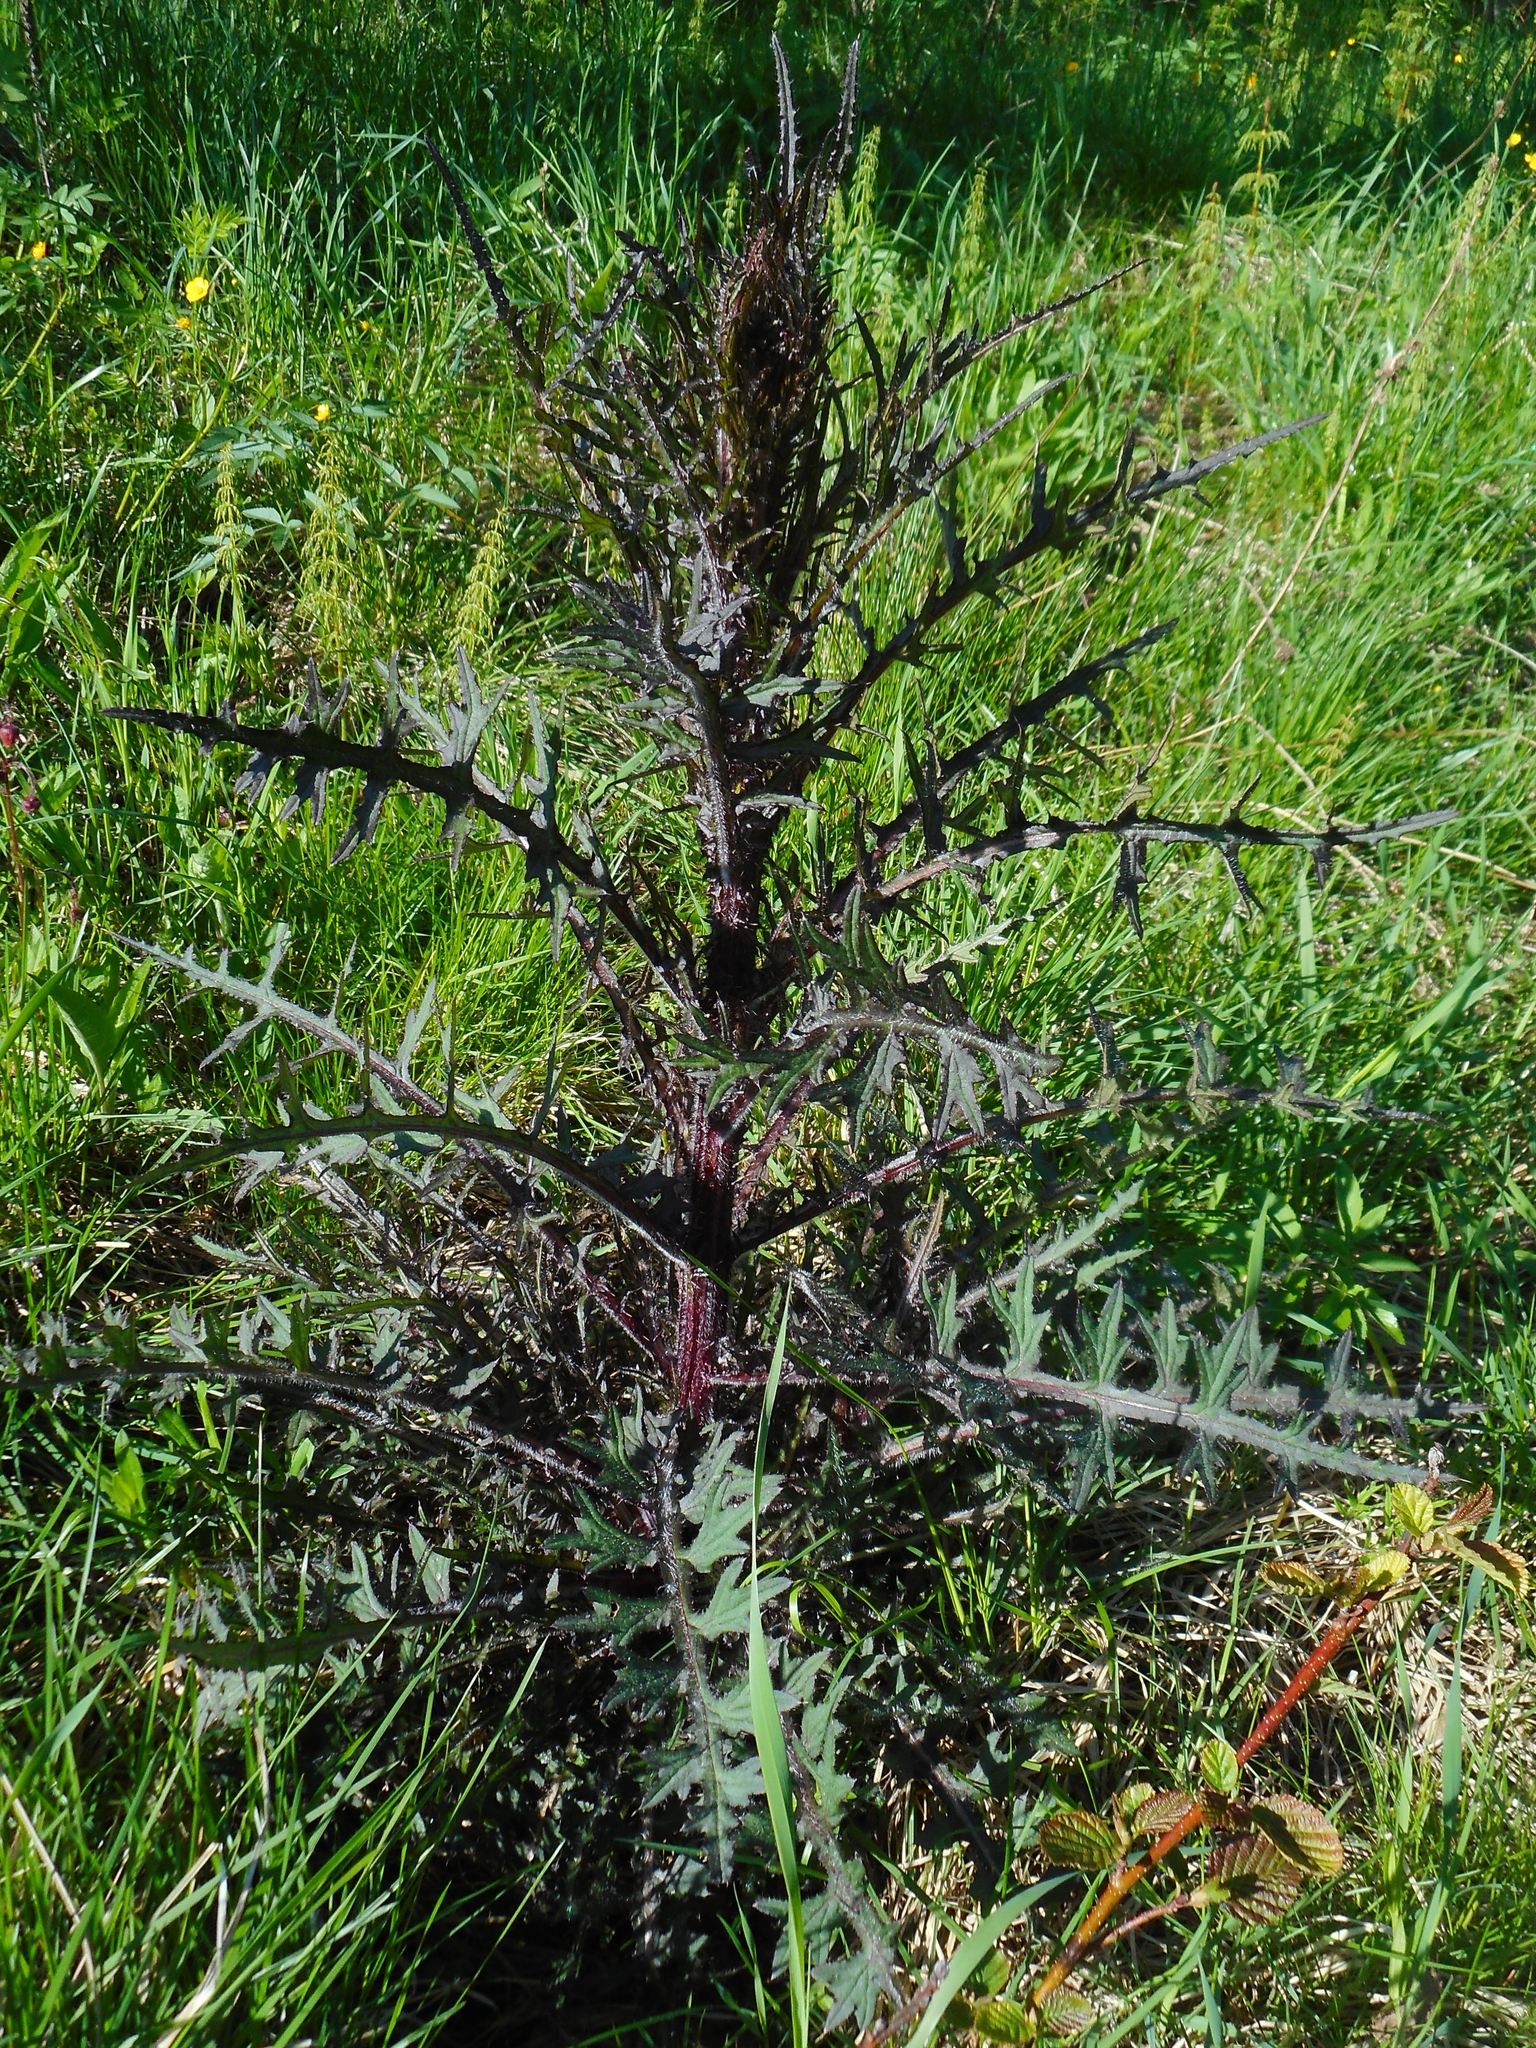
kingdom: Plantae
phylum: Tracheophyta
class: Magnoliopsida
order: Asterales
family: Asteraceae
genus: Cirsium
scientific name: Cirsium palustre
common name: Marsh thistle
